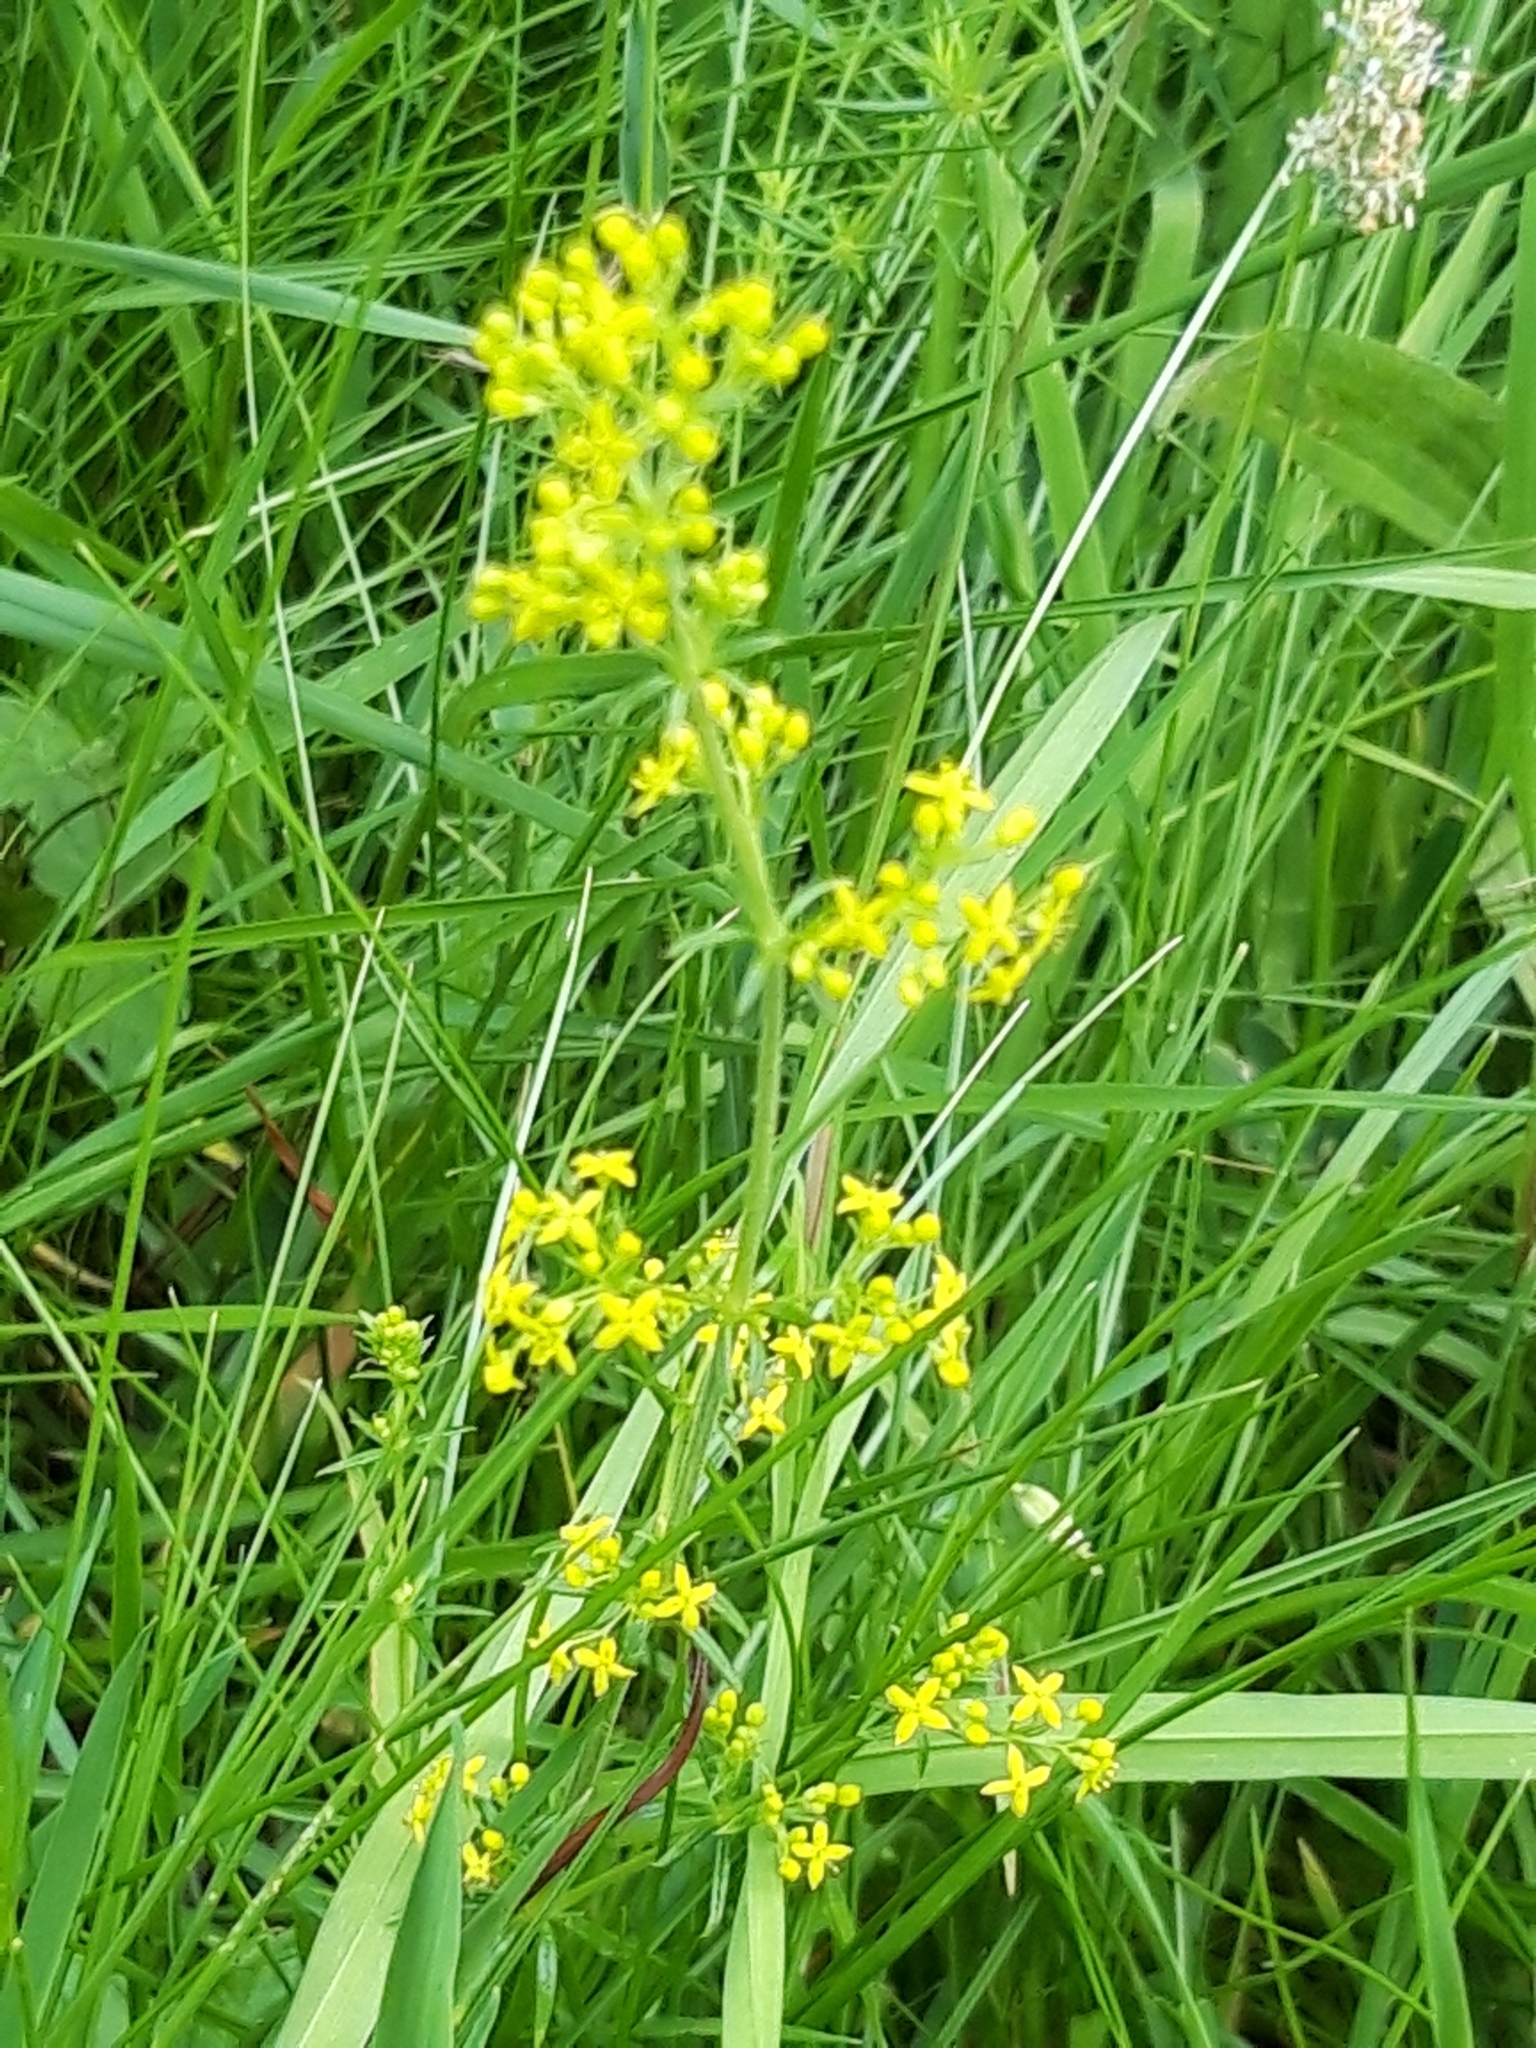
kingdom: Plantae
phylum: Tracheophyta
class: Magnoliopsida
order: Gentianales
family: Rubiaceae
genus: Galium
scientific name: Galium verum
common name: Lady's bedstraw
